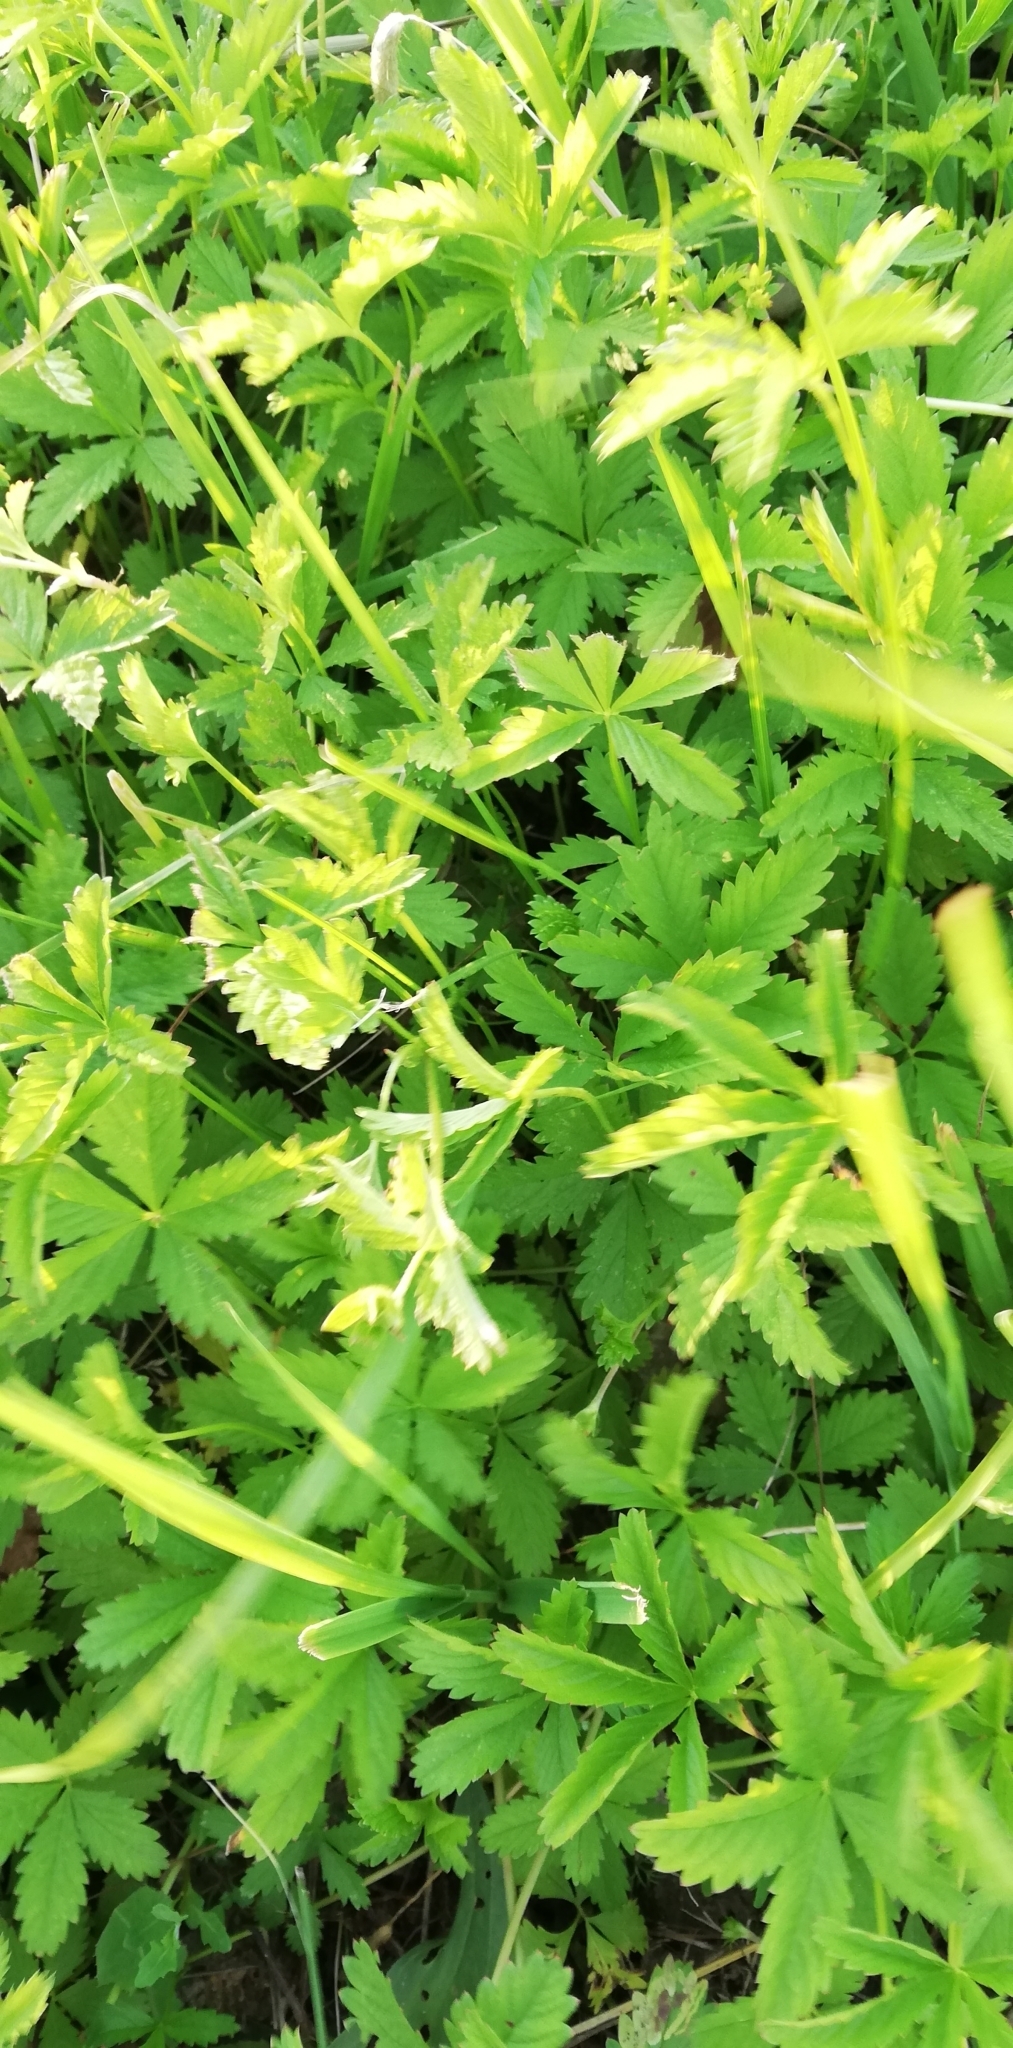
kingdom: Plantae
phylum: Tracheophyta
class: Magnoliopsida
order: Rosales
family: Rosaceae
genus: Potentilla
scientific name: Potentilla reptans
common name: Creeping cinquefoil
